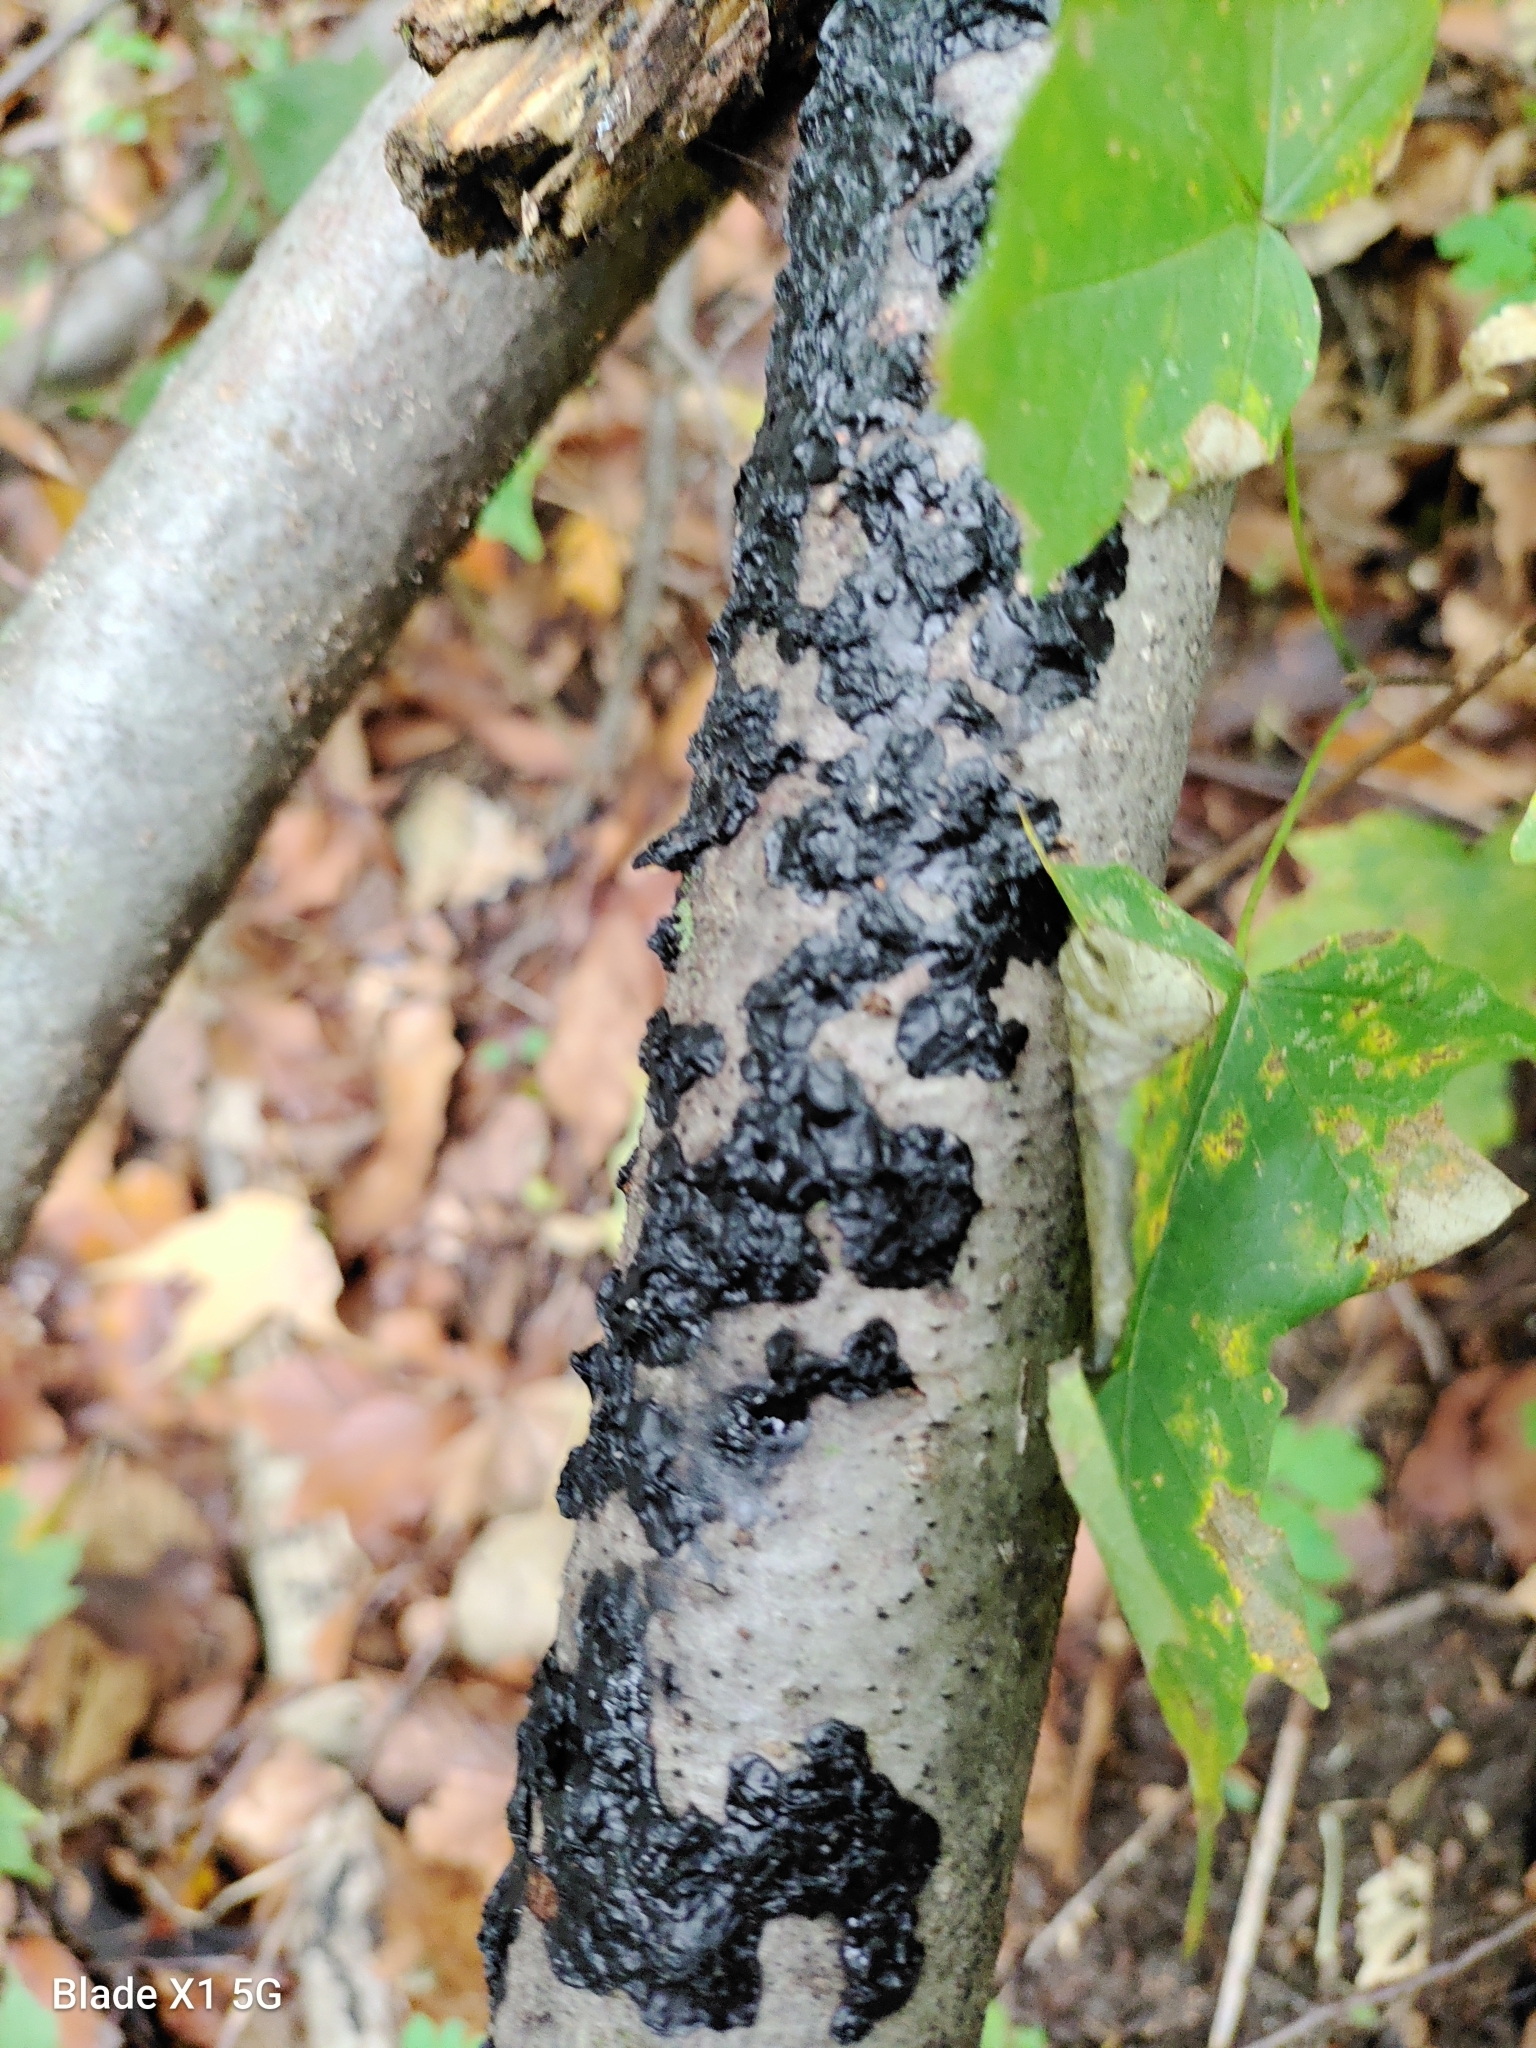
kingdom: Fungi
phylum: Basidiomycota
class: Agaricomycetes
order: Auriculariales
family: Auriculariaceae
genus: Exidia
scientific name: Exidia nigricans
